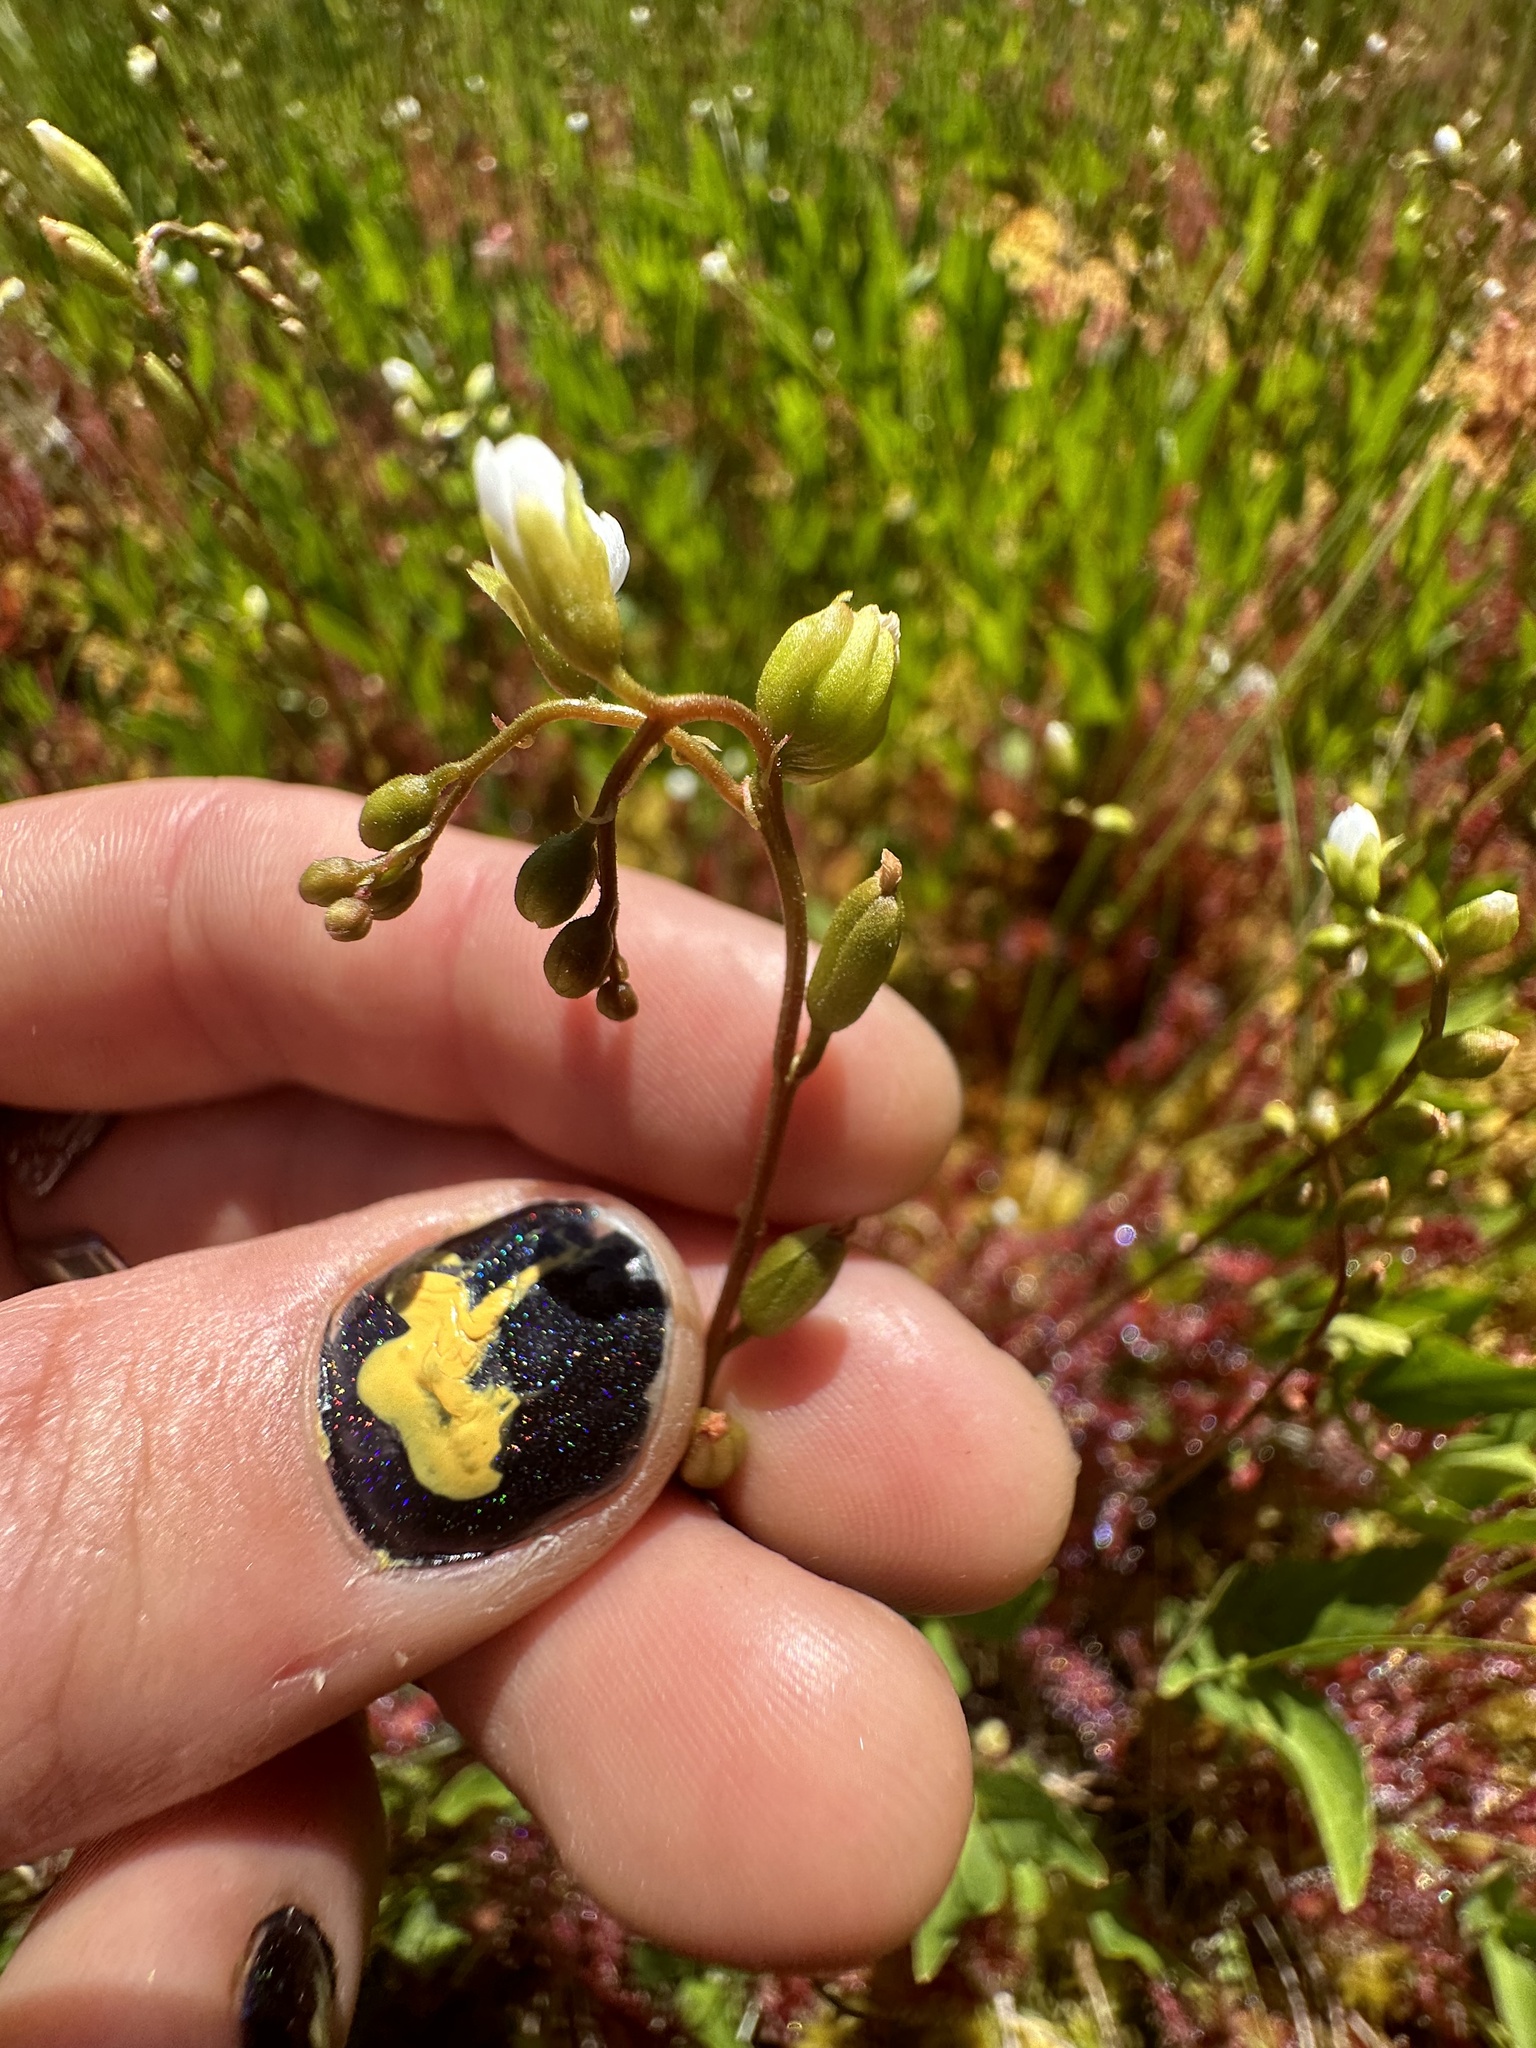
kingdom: Plantae
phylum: Tracheophyta
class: Magnoliopsida
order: Caryophyllales
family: Droseraceae
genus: Drosera
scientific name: Drosera anglica
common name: Great sundew
